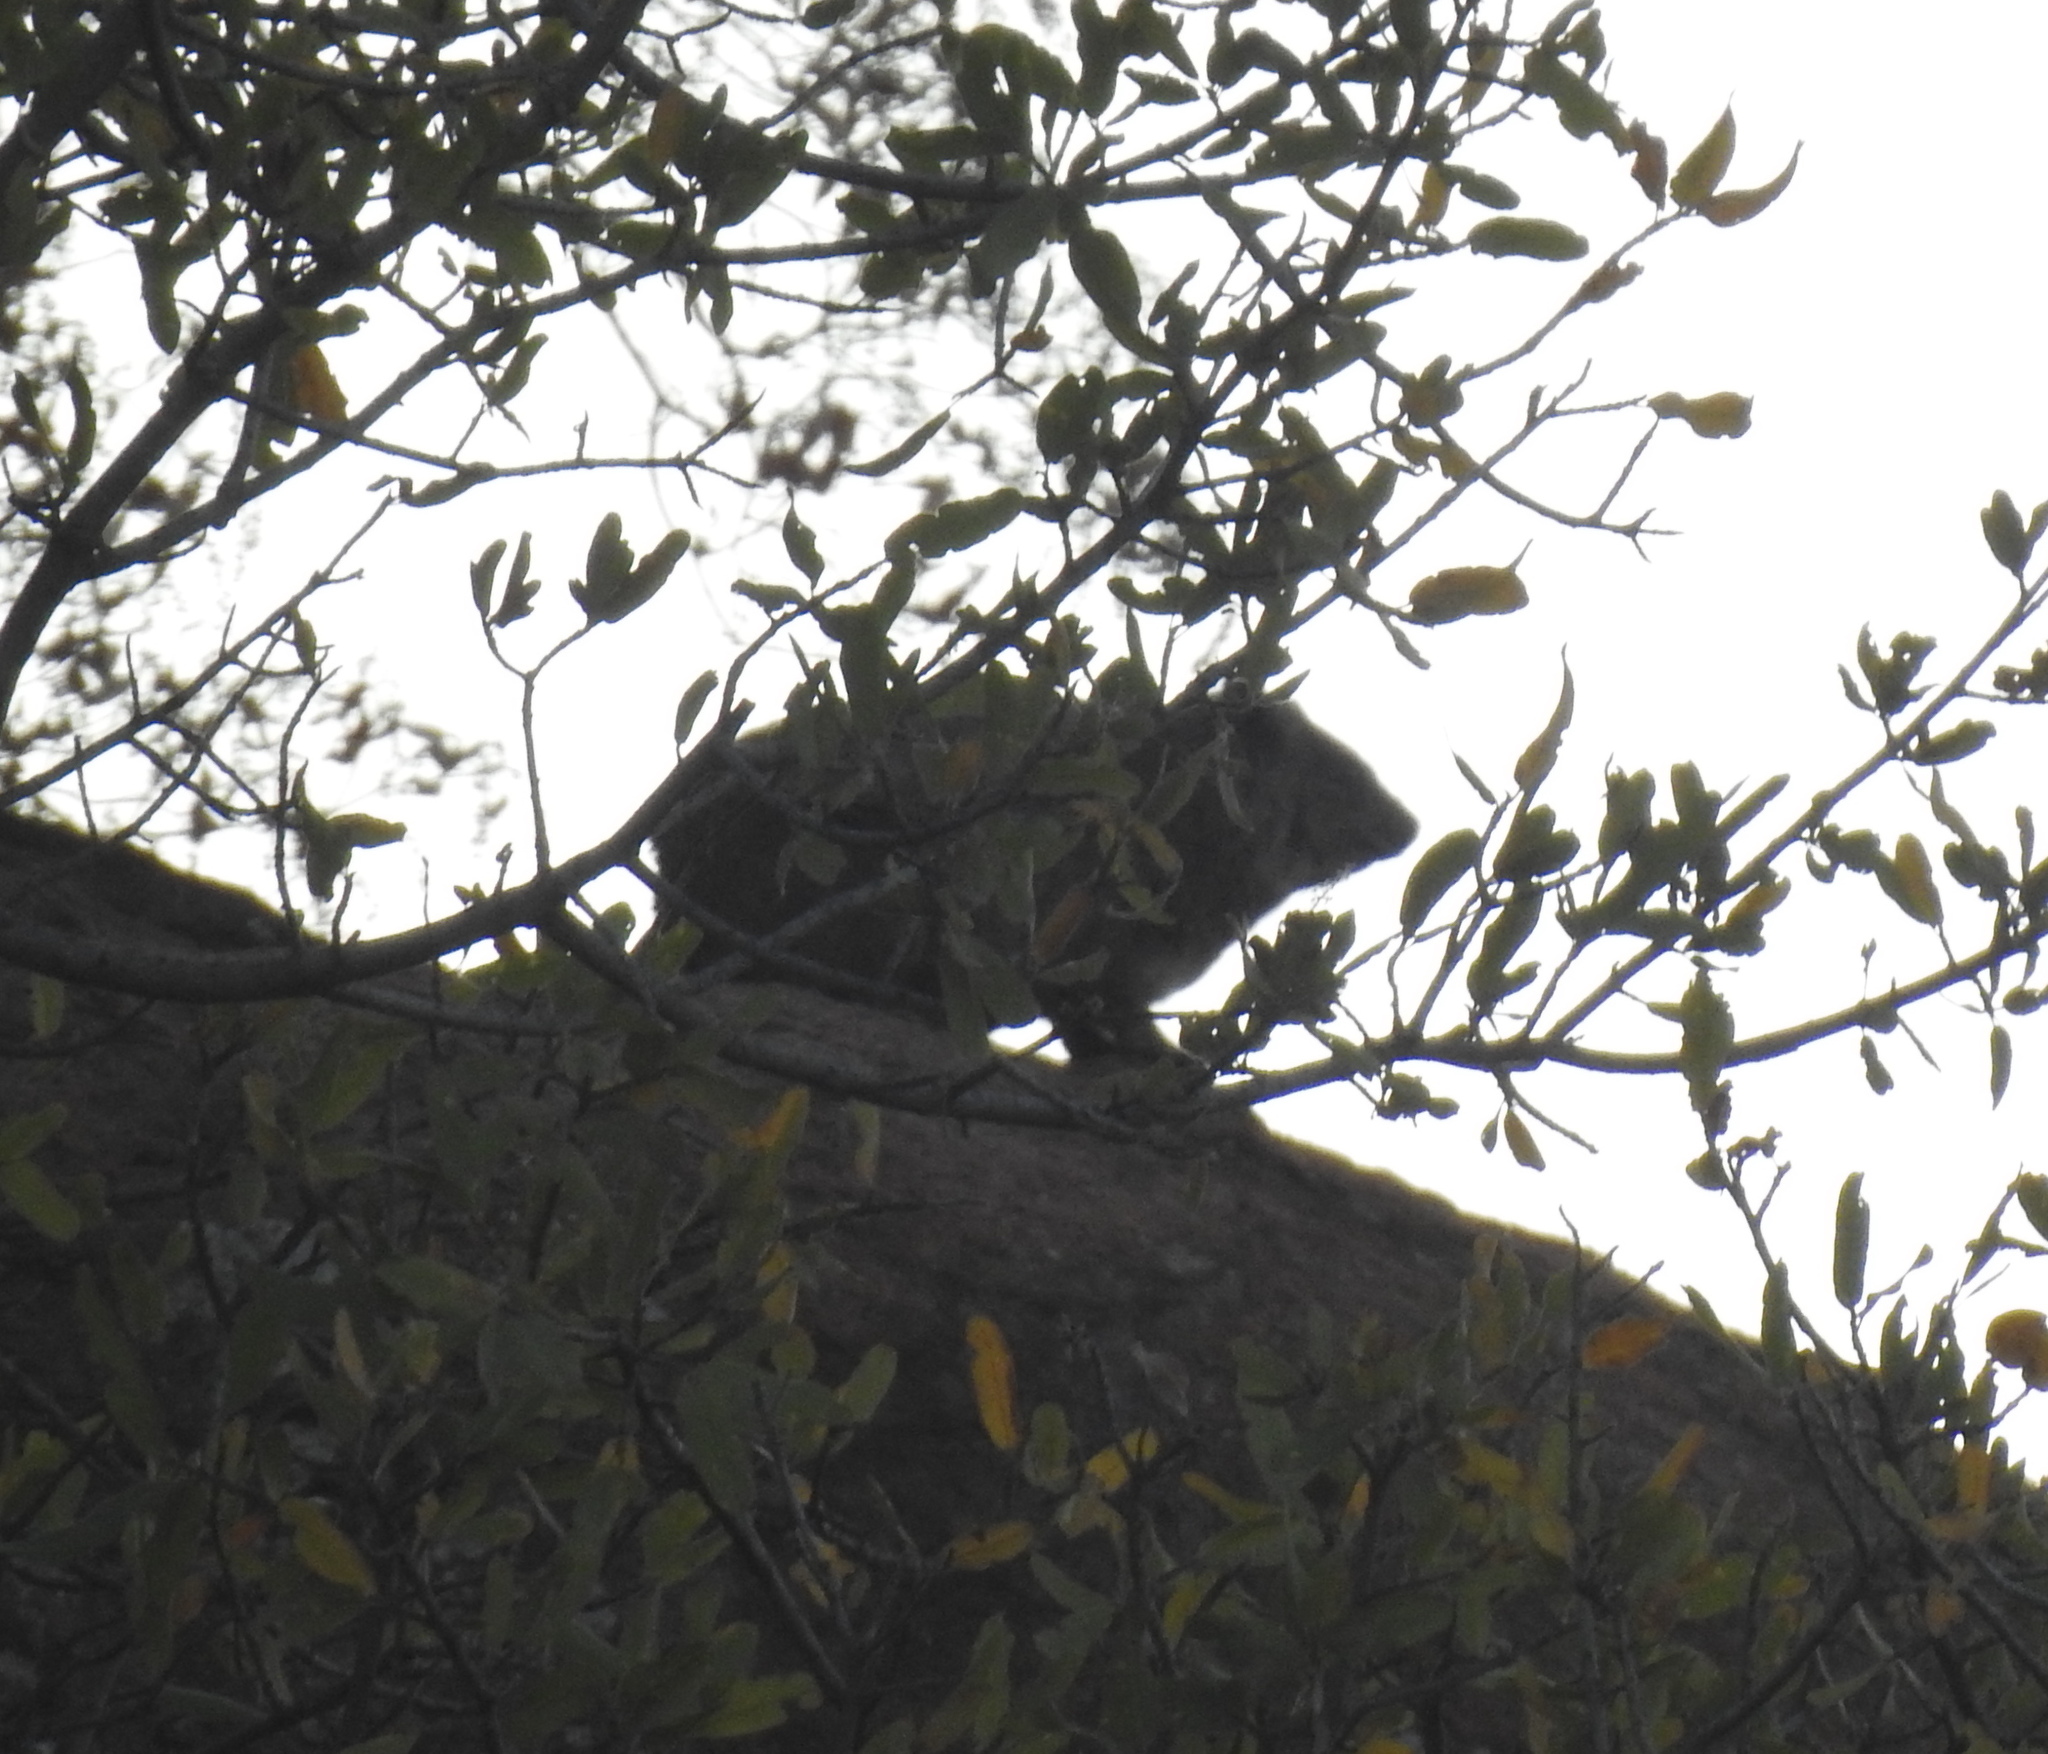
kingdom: Animalia
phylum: Chordata
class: Mammalia
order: Hyracoidea
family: Procaviidae
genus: Procavia
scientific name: Procavia capensis
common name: Rock hyrax
